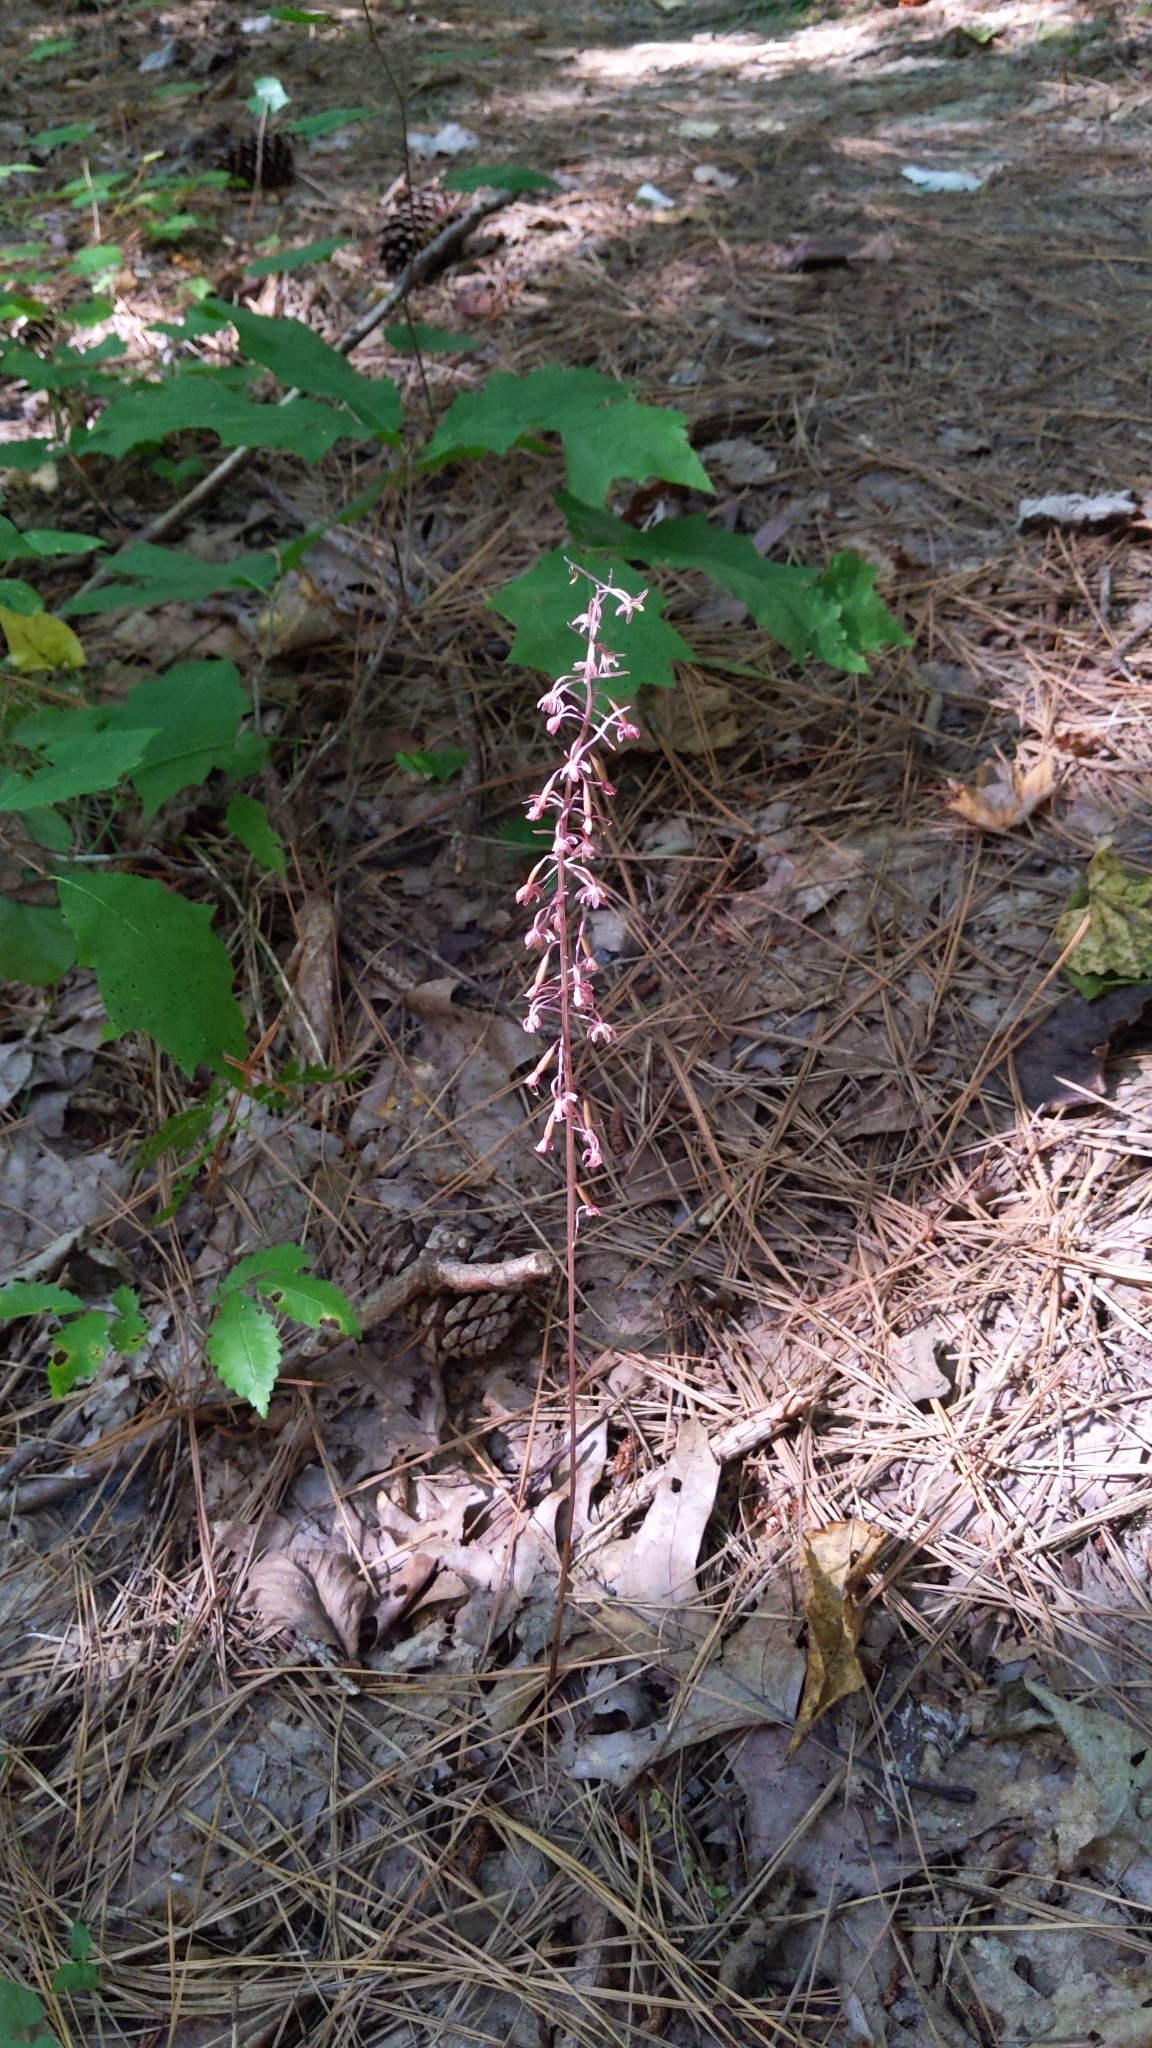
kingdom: Plantae
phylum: Tracheophyta
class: Liliopsida
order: Asparagales
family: Orchidaceae
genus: Tipularia
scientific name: Tipularia discolor
